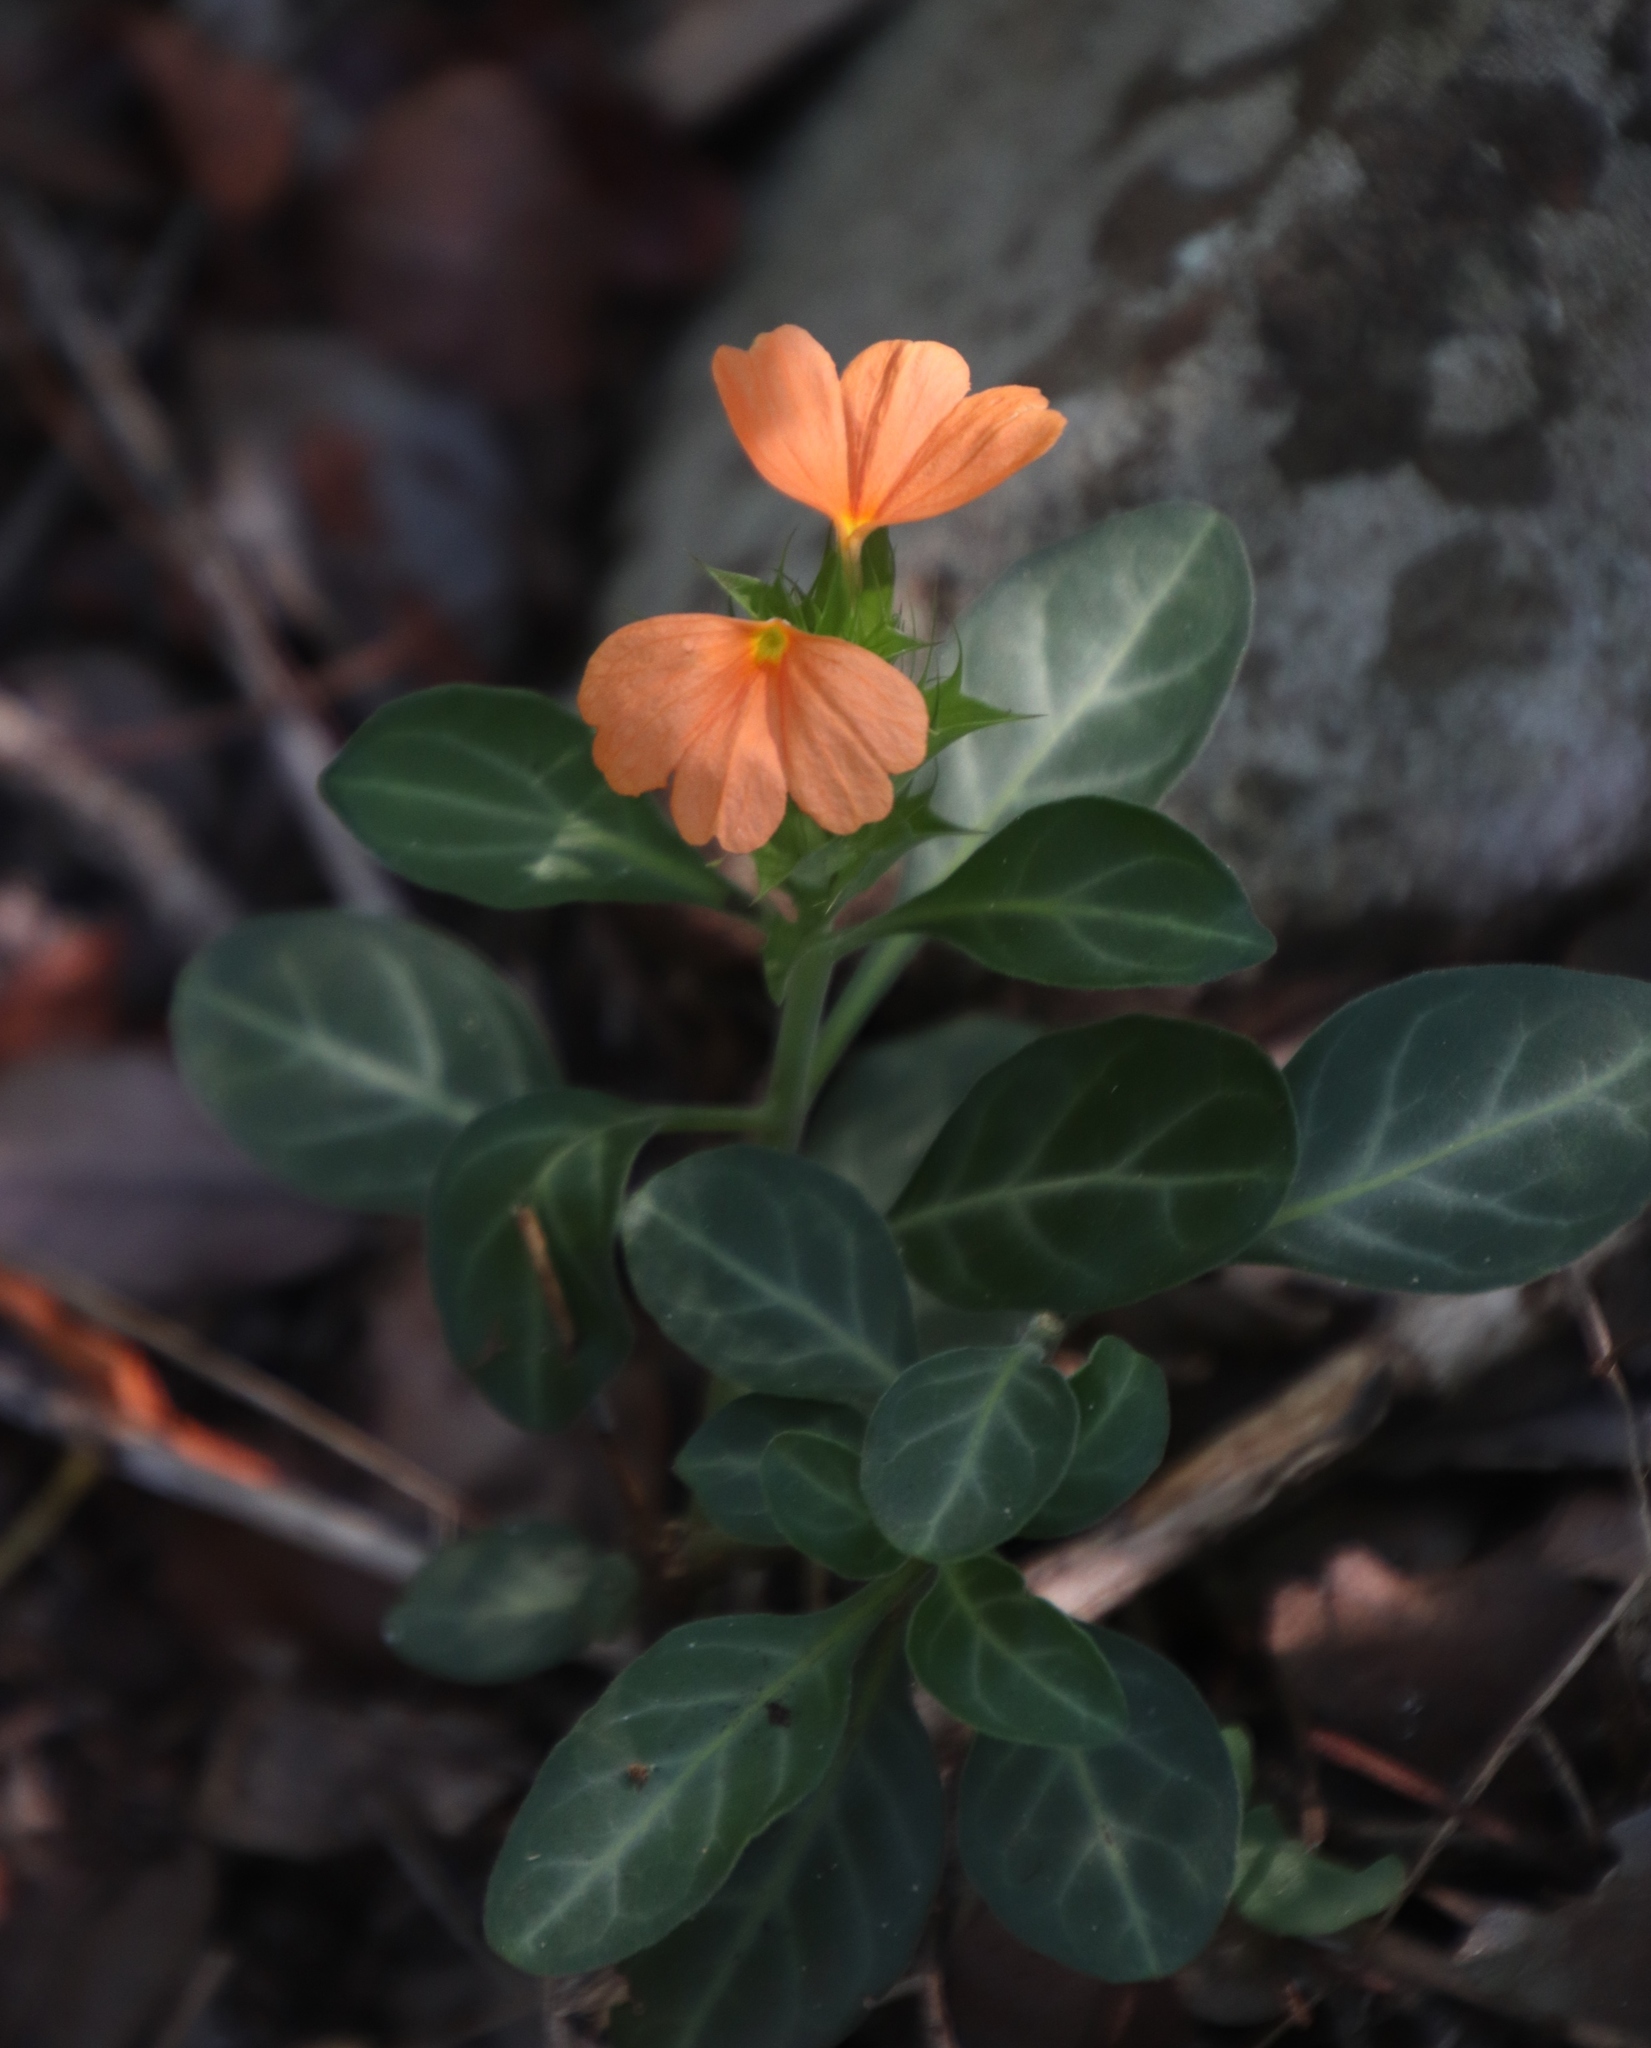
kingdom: Plantae
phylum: Tracheophyta
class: Magnoliopsida
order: Lamiales
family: Acanthaceae
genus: Crossandra
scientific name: Crossandra fruticulosa
